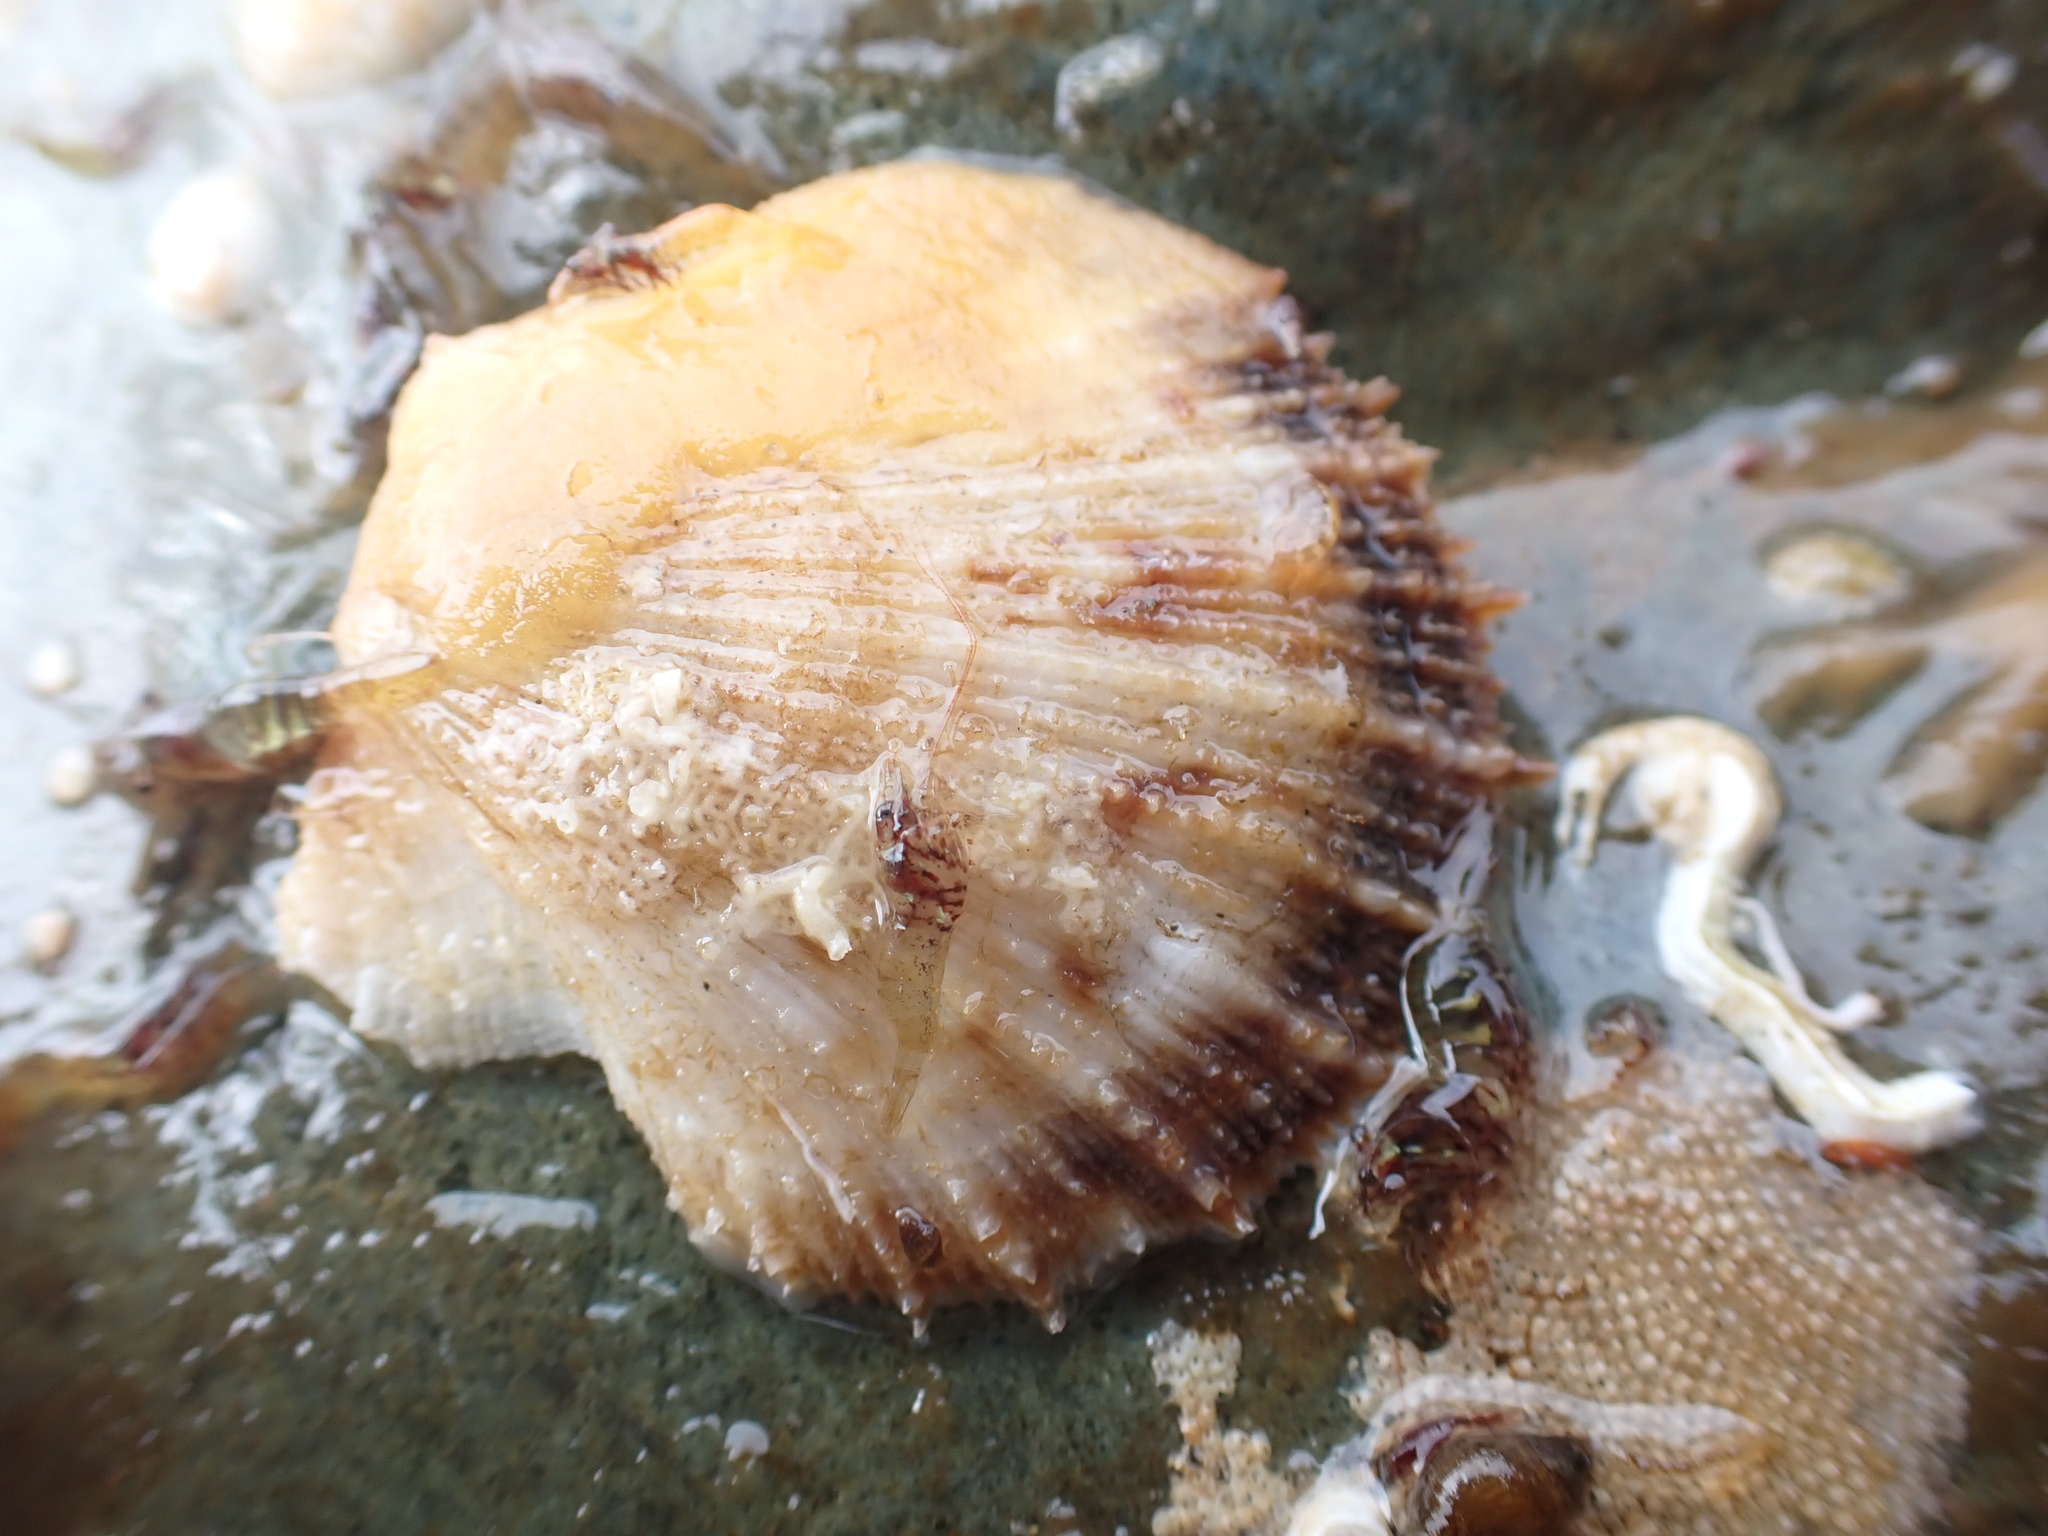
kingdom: Animalia
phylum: Mollusca
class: Bivalvia
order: Pectinida
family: Pectinidae
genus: Crassadoma
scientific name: Crassadoma gigantea
